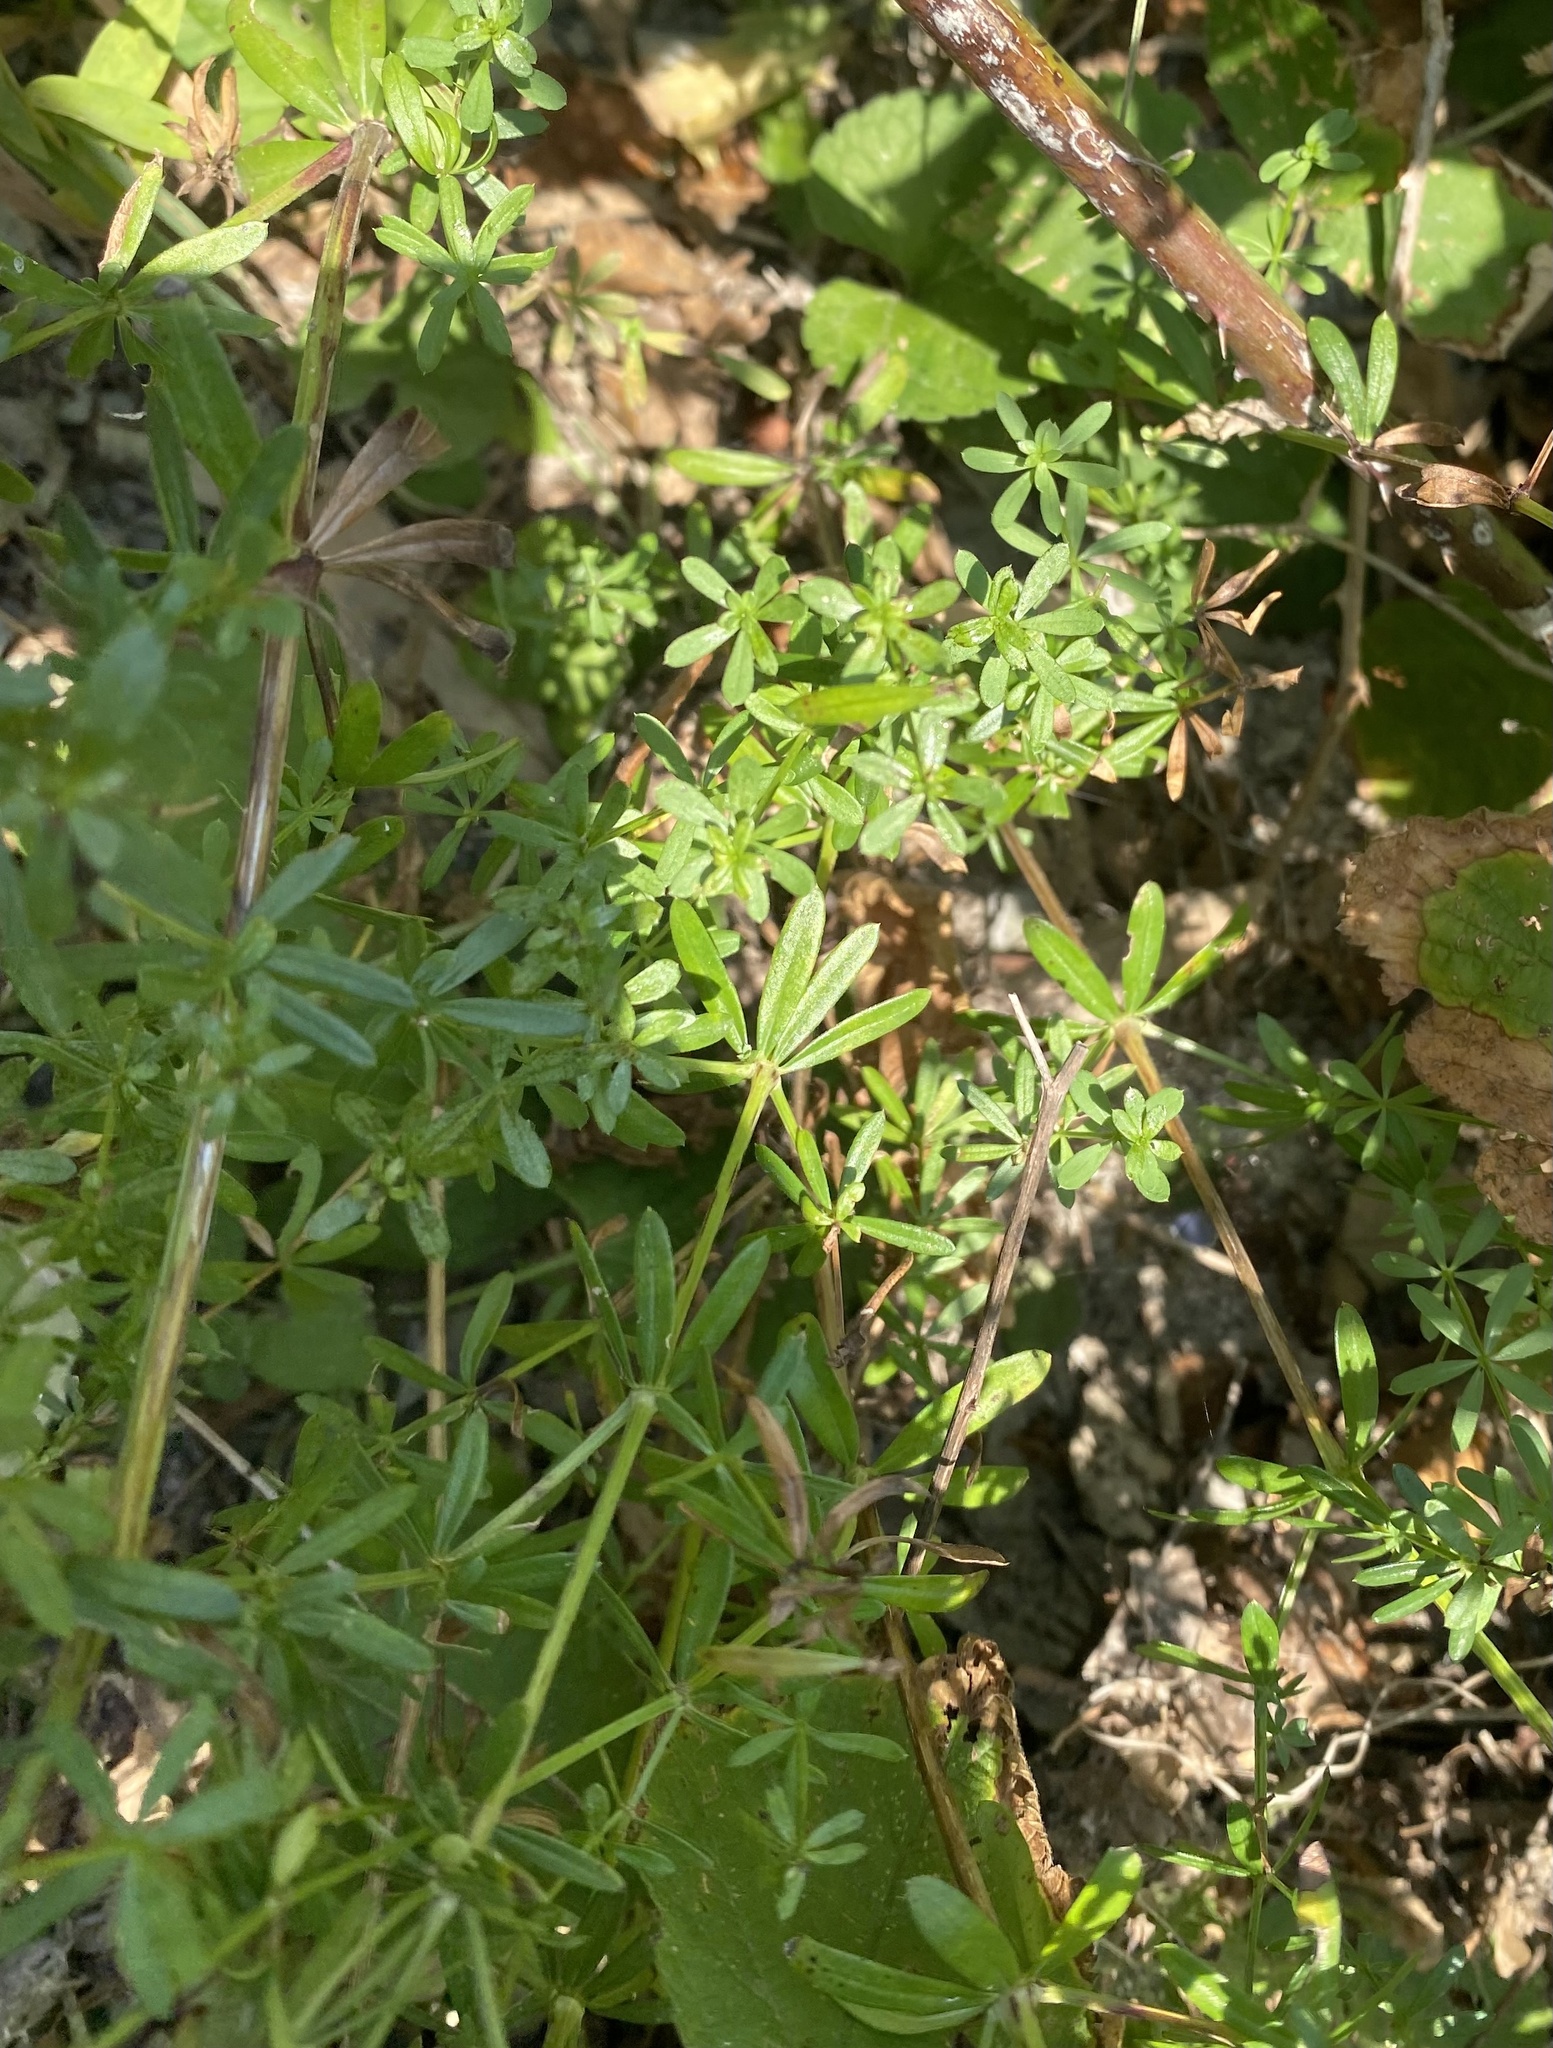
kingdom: Plantae
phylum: Tracheophyta
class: Magnoliopsida
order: Gentianales
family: Rubiaceae
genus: Galium
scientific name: Galium mollugo
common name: Hedge bedstraw
